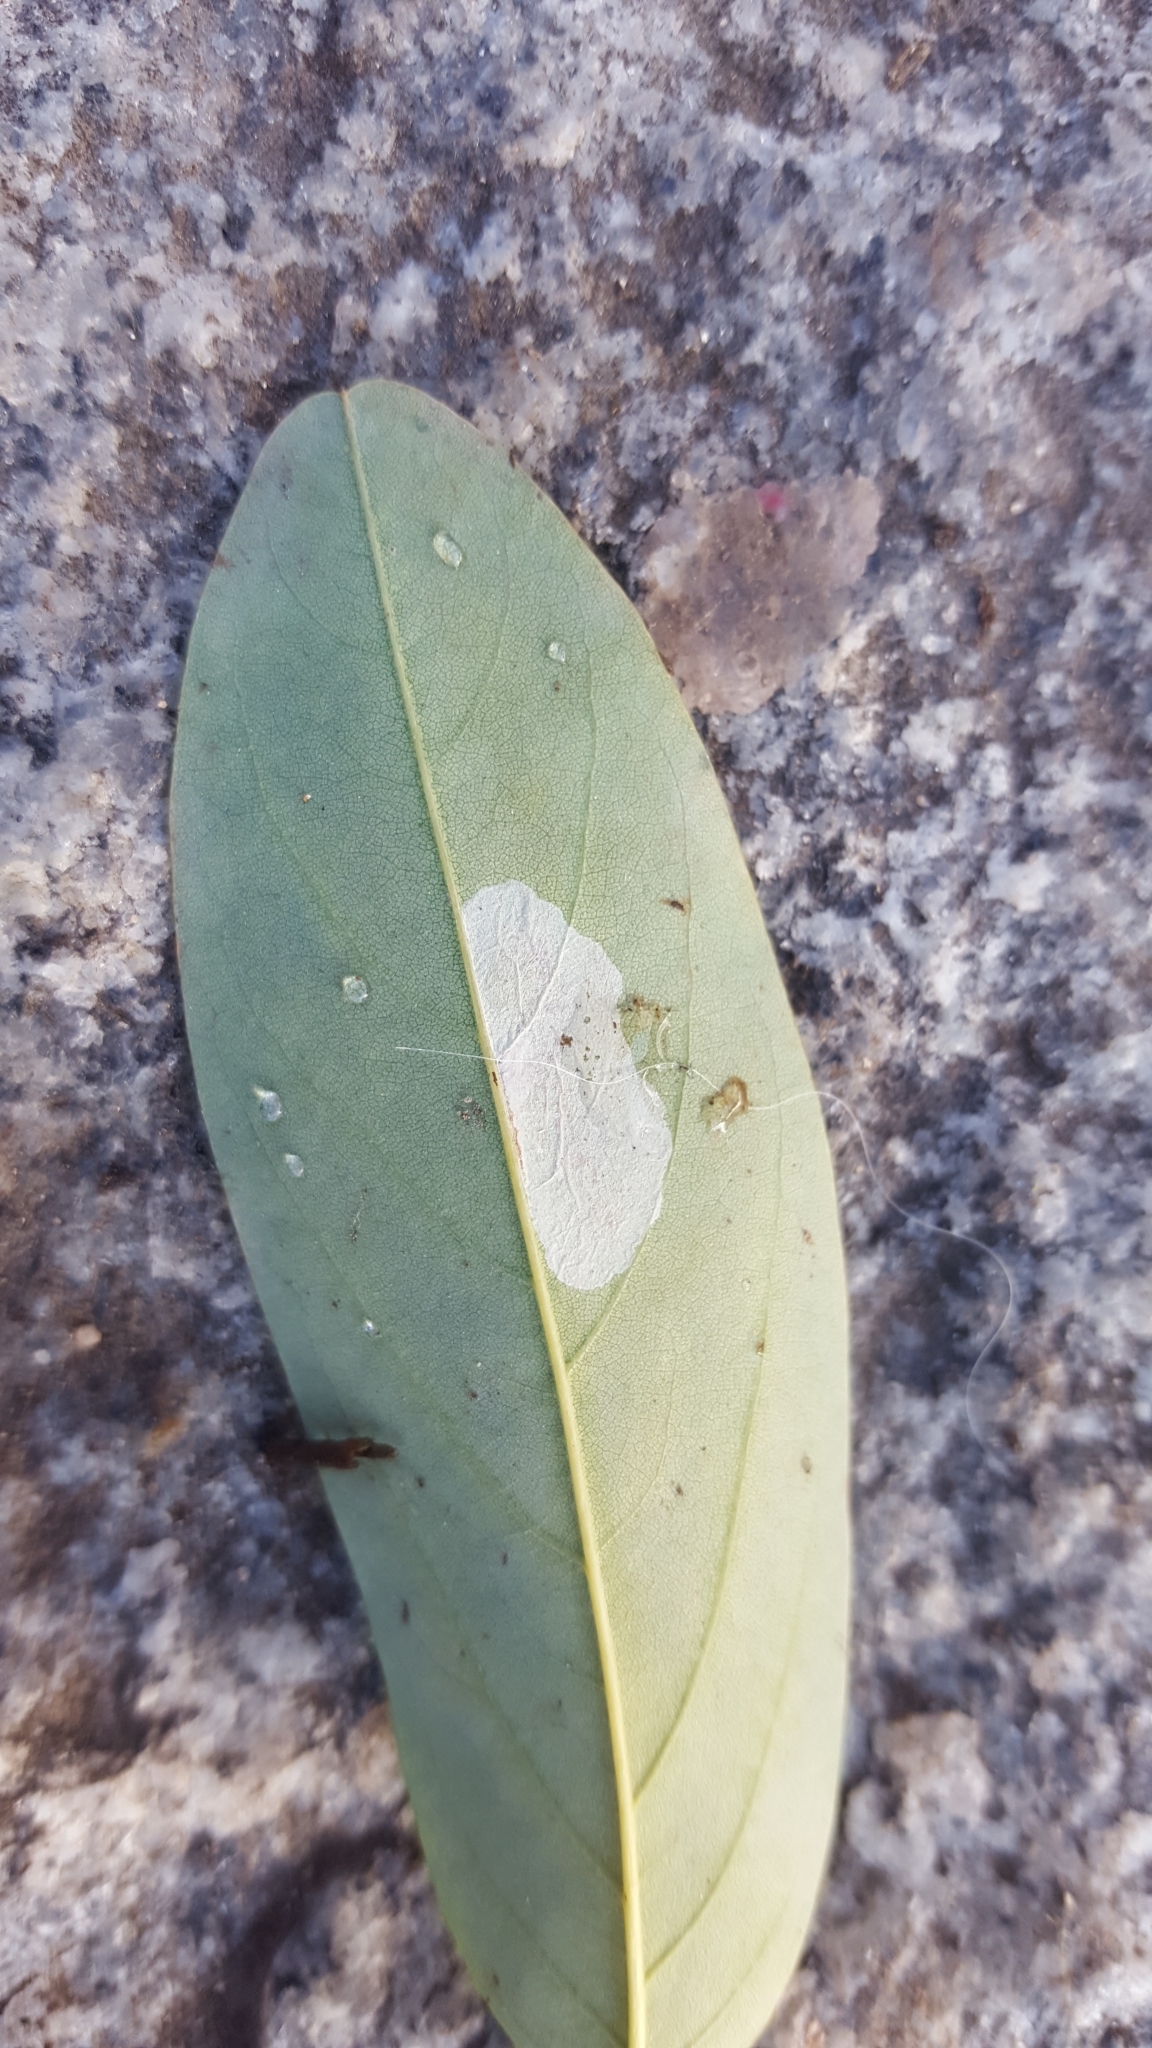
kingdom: Animalia
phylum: Arthropoda
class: Insecta
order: Lepidoptera
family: Gracillariidae
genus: Macrosaccus
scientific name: Macrosaccus robiniella
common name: Leaf blotch miner moth
